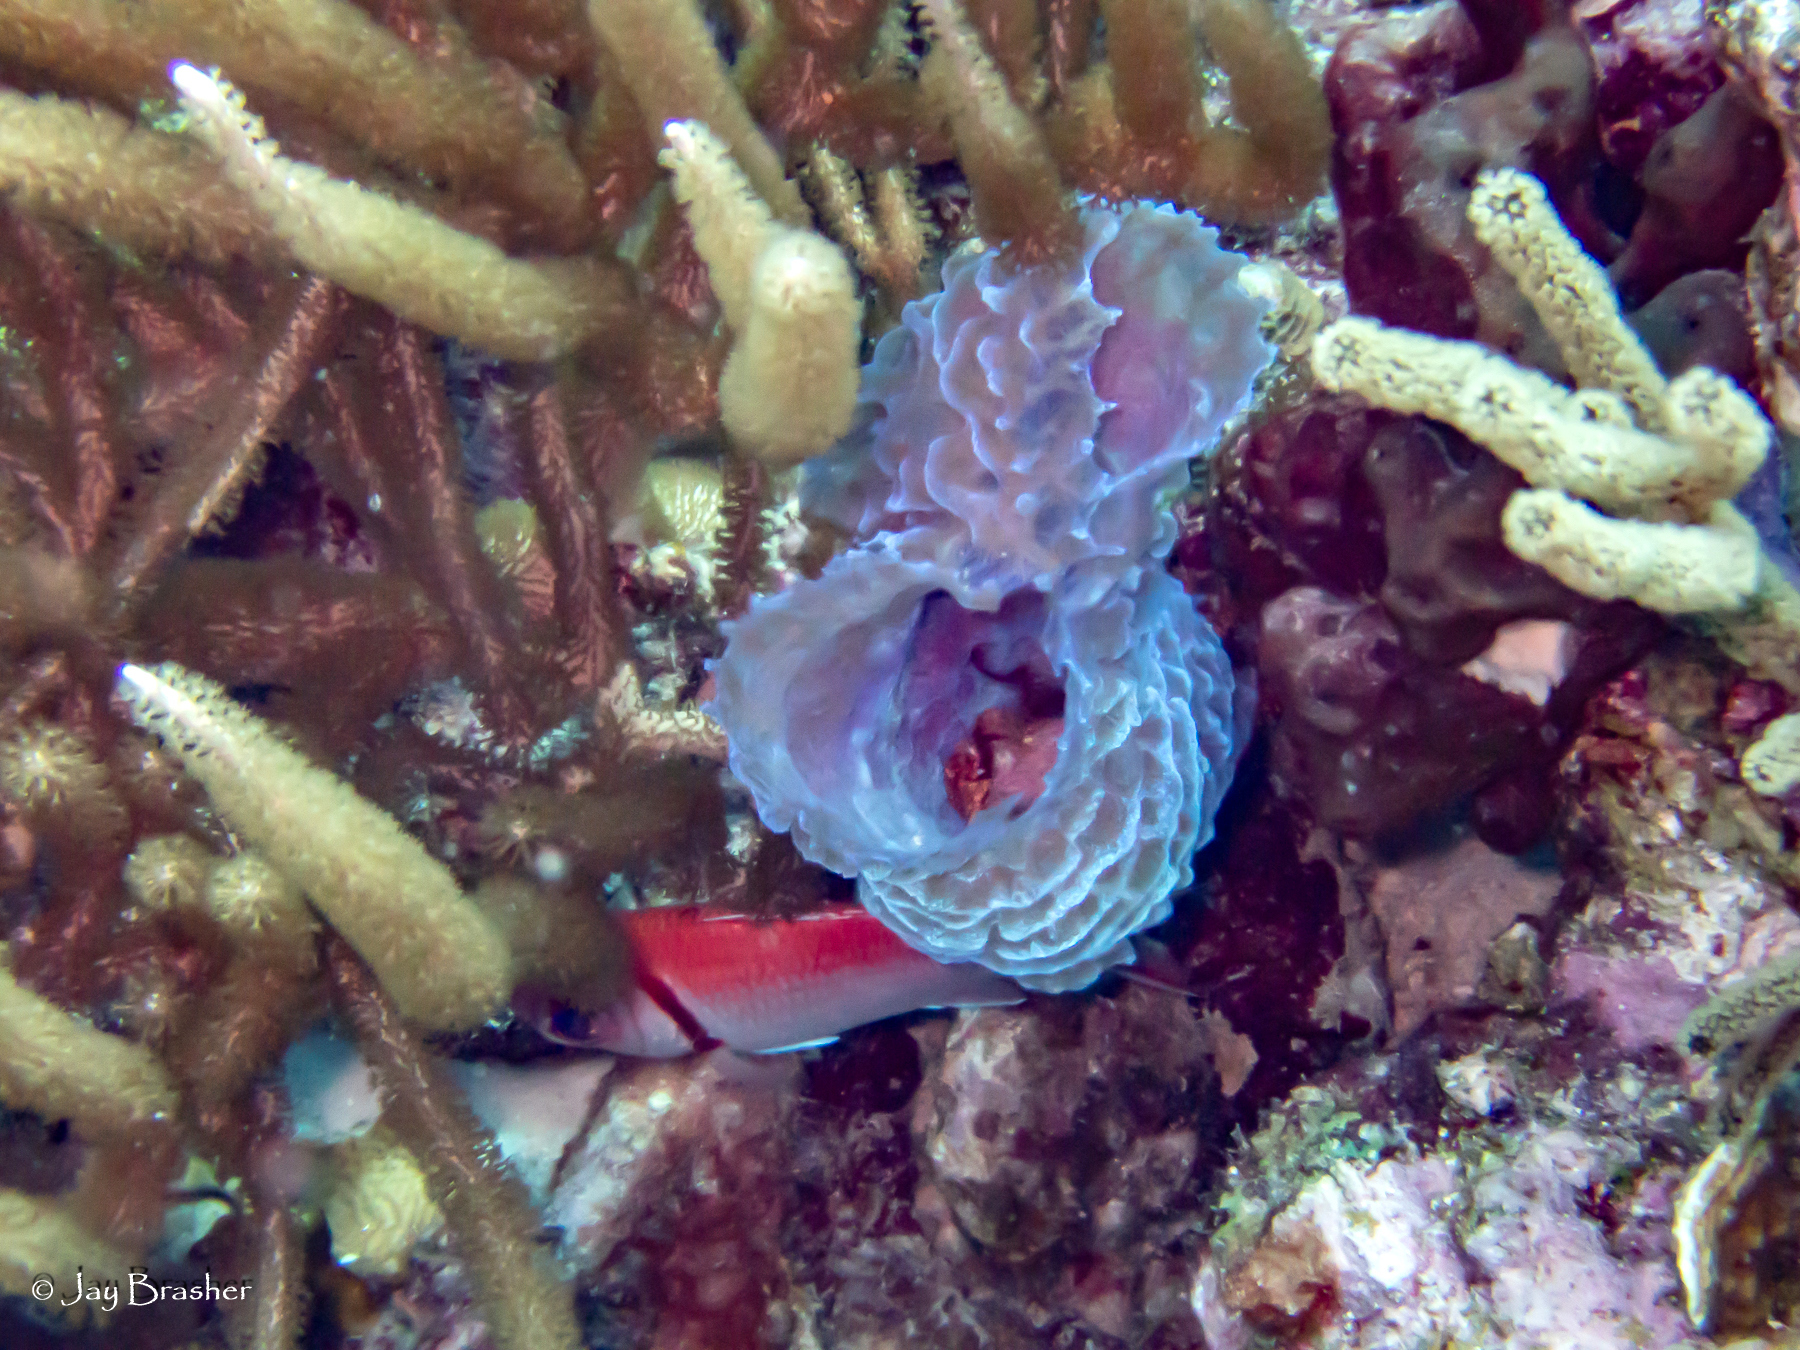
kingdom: Animalia
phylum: Porifera
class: Demospongiae
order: Haplosclerida
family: Callyspongiidae
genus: Callyspongia
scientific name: Callyspongia plicifera
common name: Azure vase sponge
